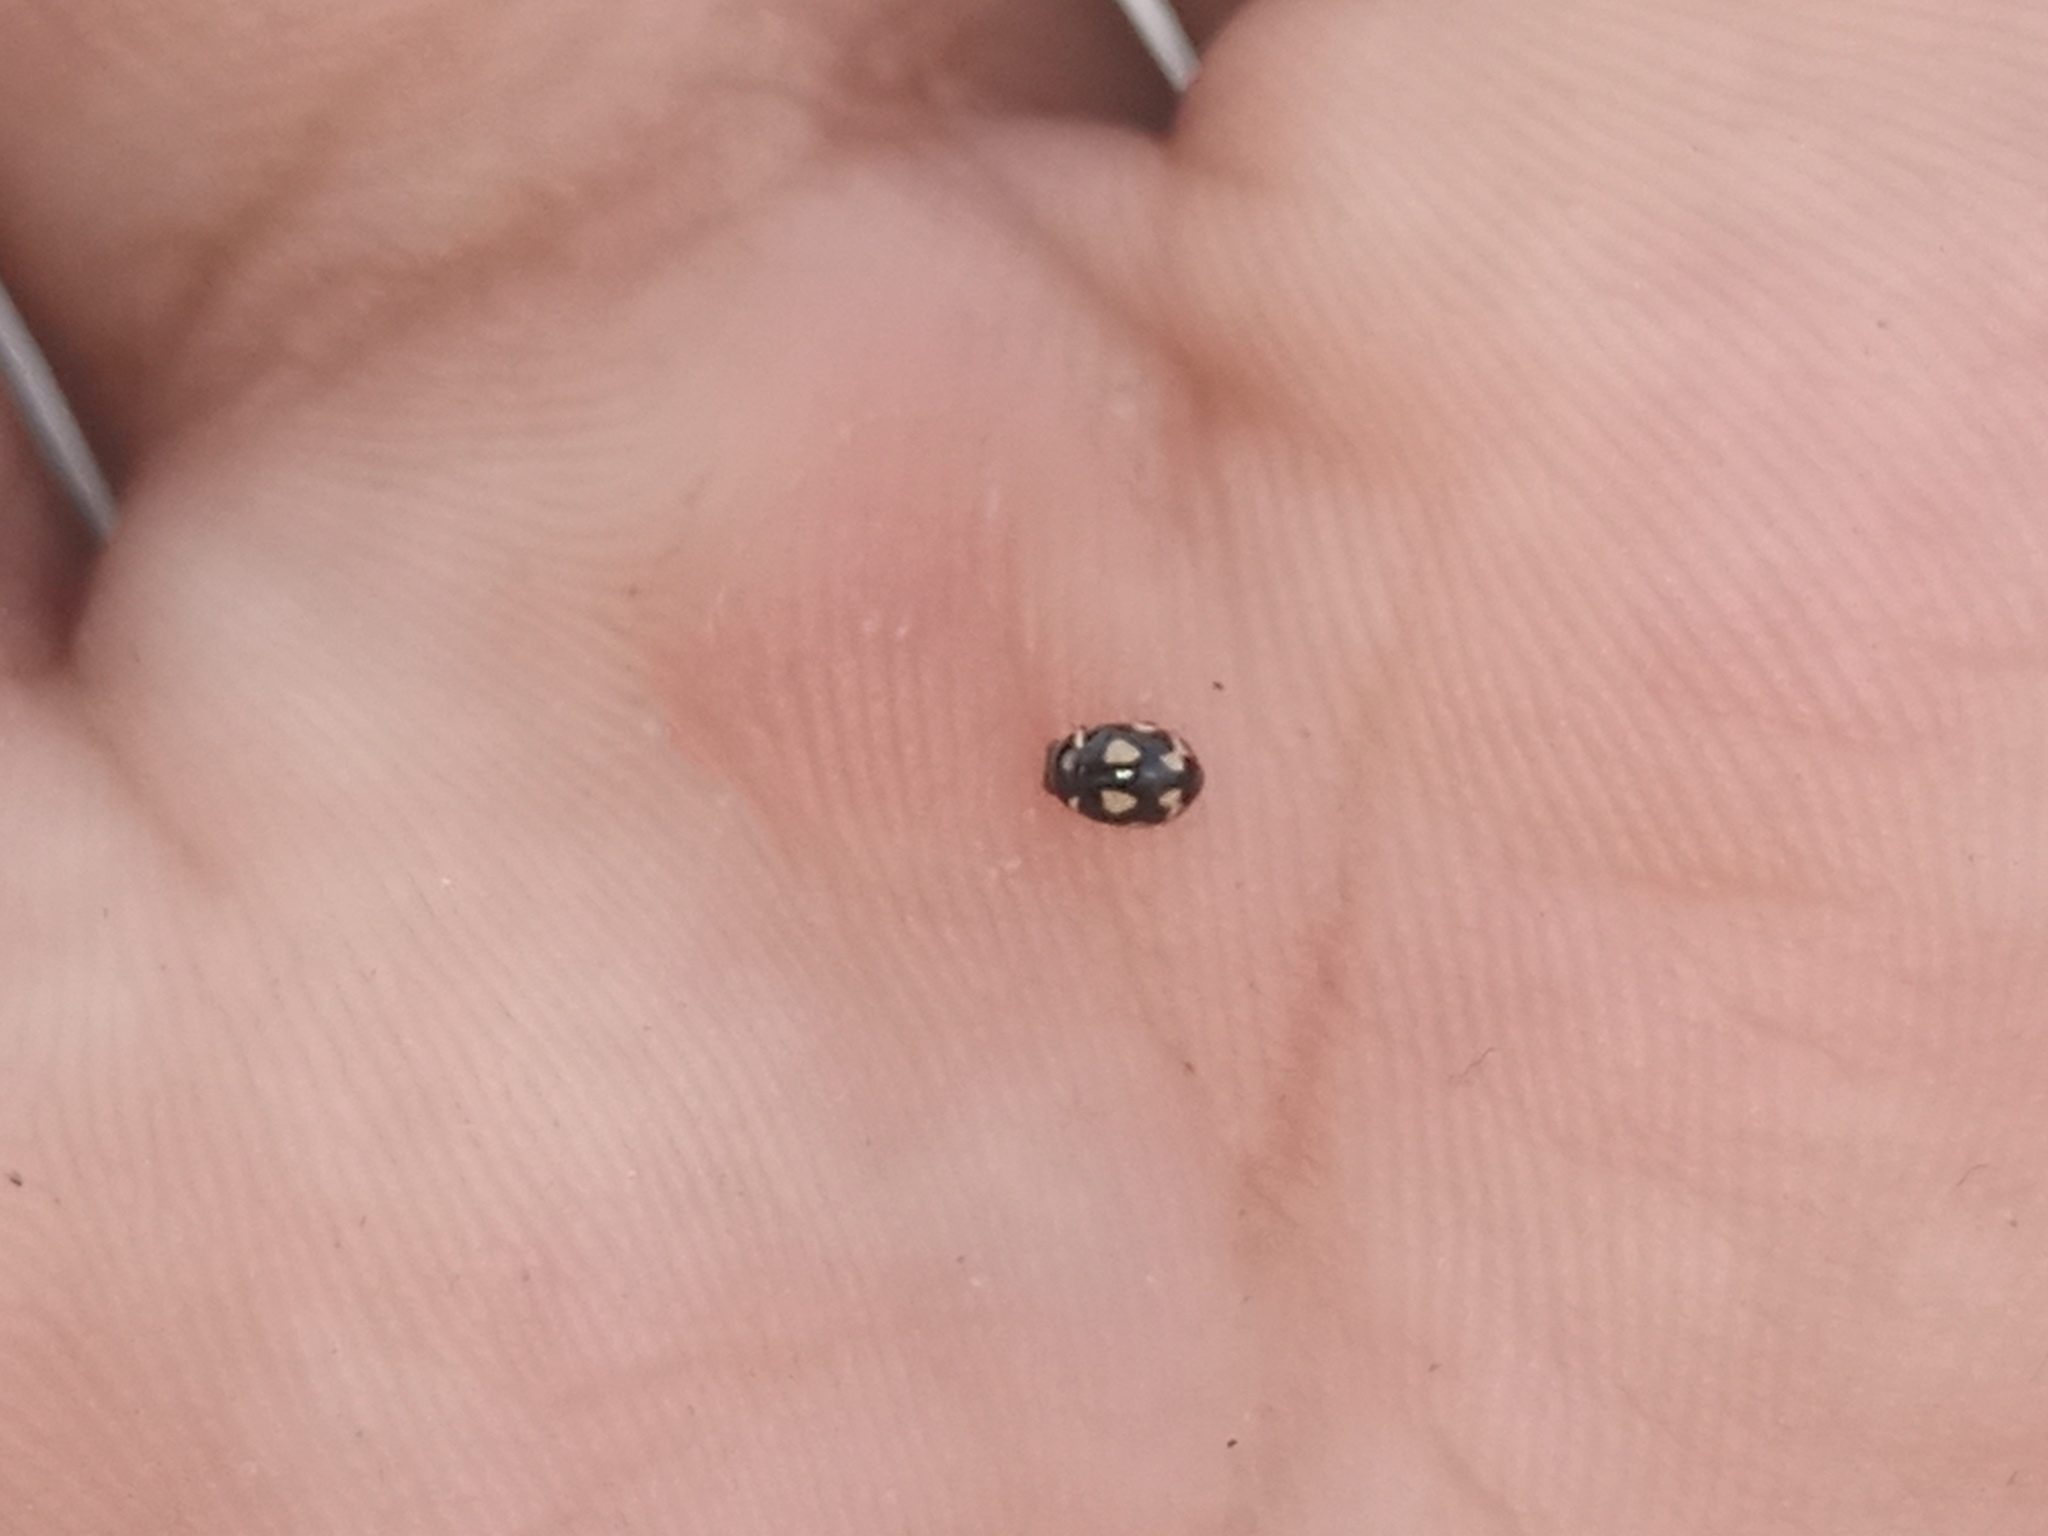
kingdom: Animalia
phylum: Arthropoda
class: Insecta
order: Coleoptera
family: Coccinellidae
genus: Hyperaspis
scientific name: Hyperaspis festiva
